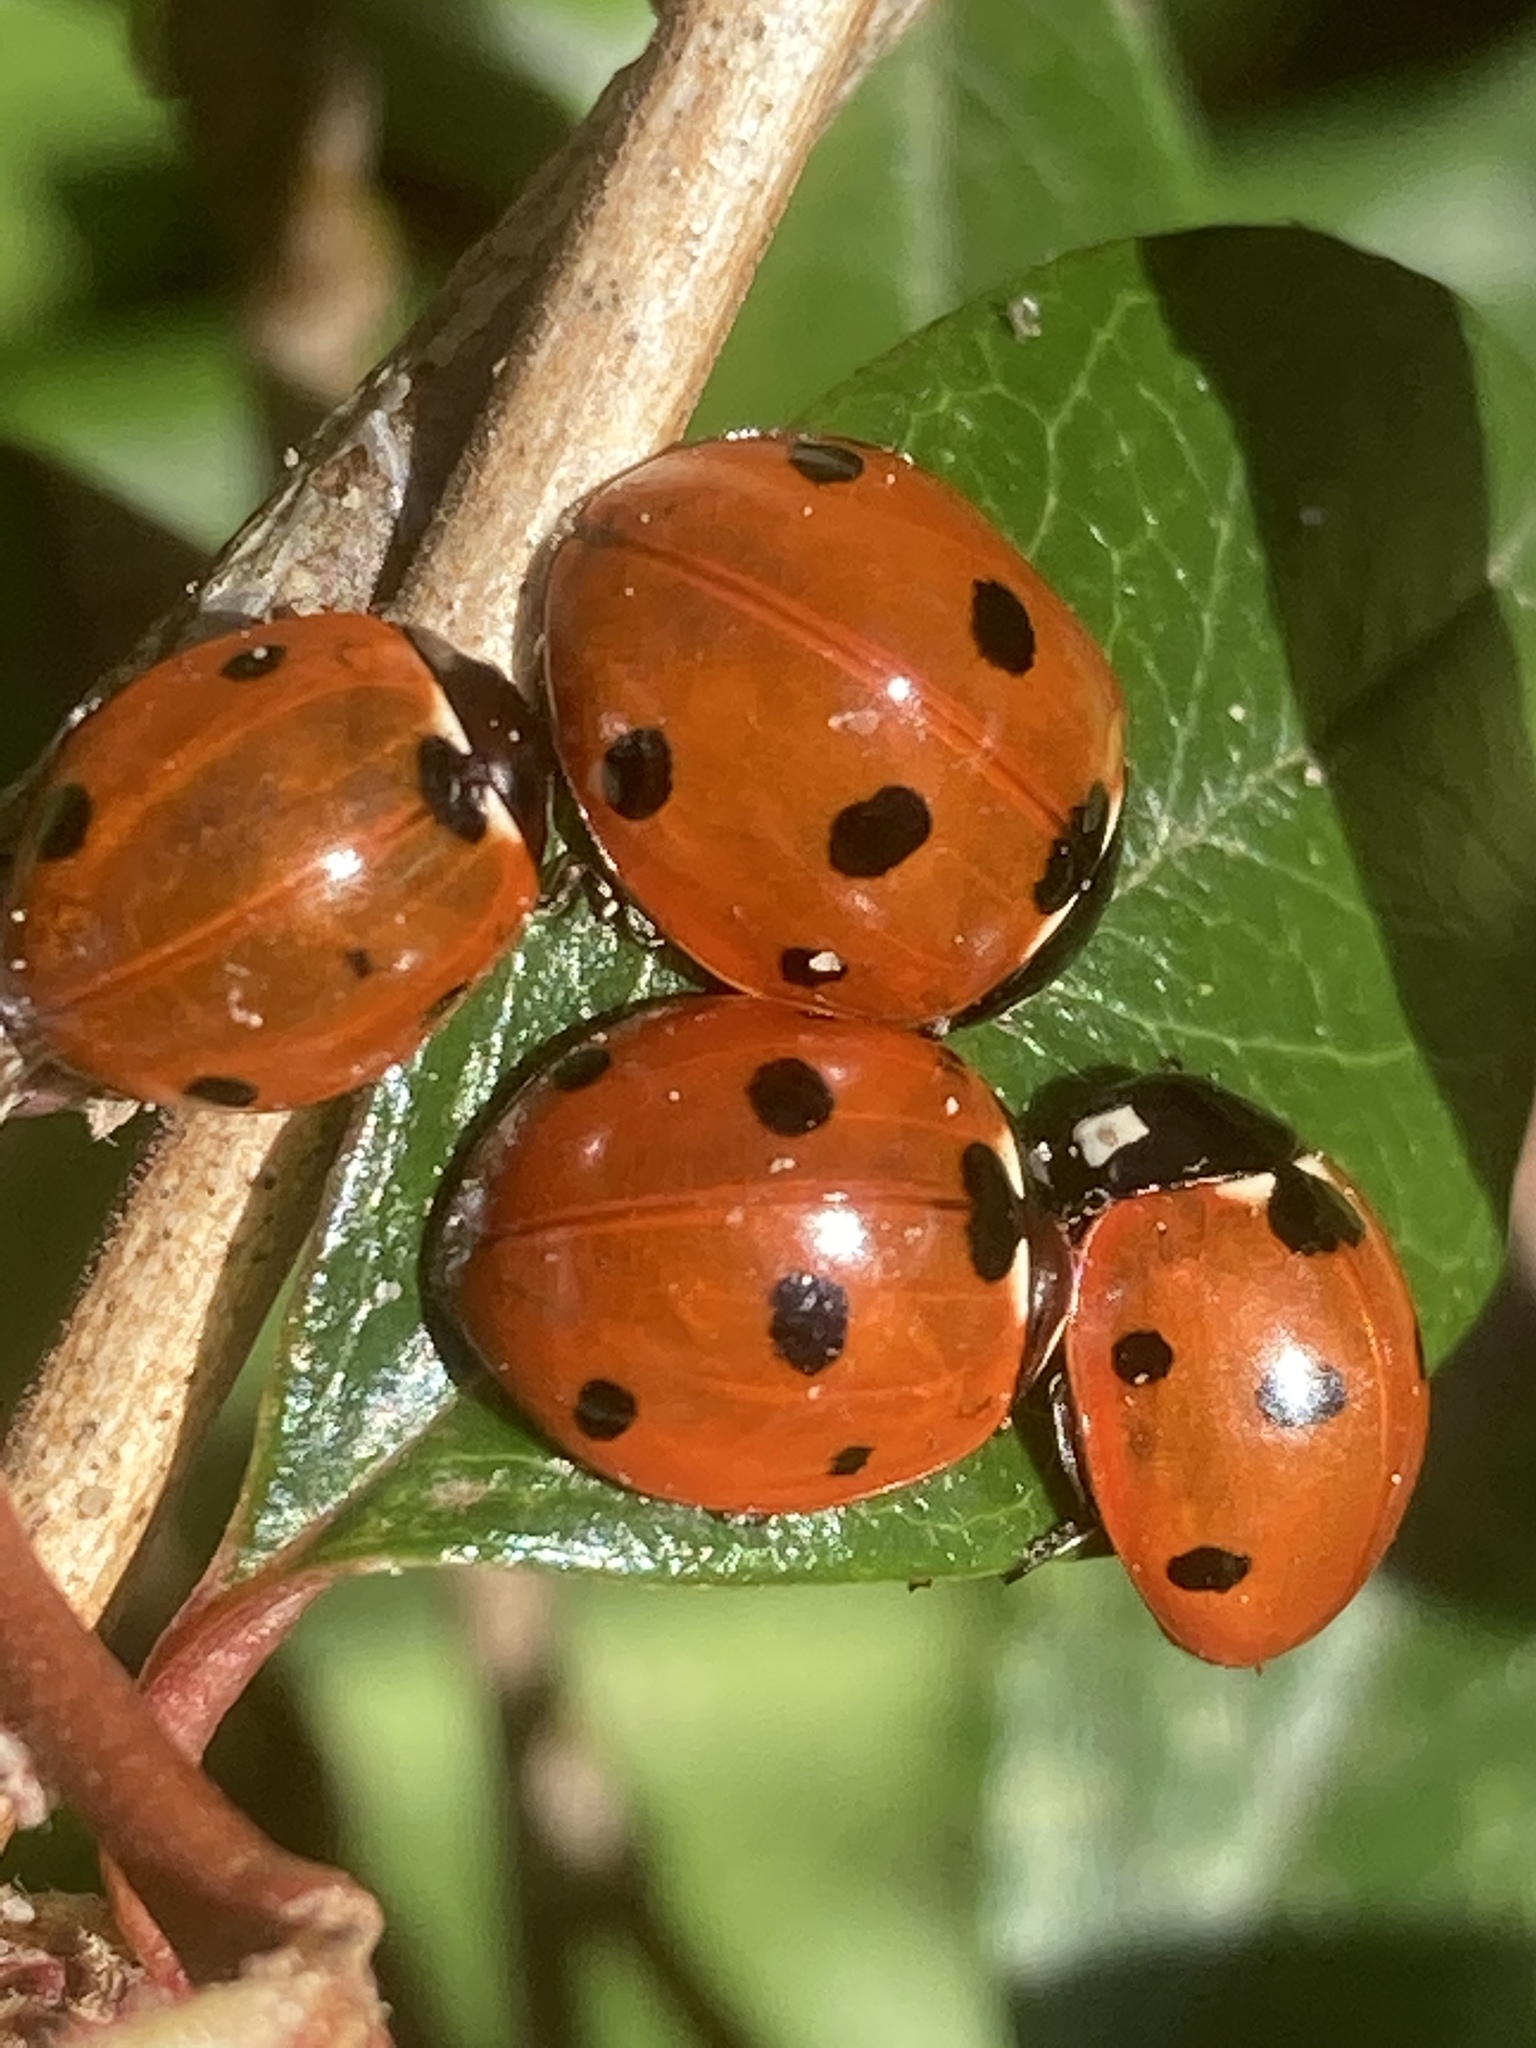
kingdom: Animalia
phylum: Arthropoda
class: Insecta
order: Coleoptera
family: Coccinellidae
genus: Coccinella
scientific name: Coccinella septempunctata
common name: Sevenspotted lady beetle
